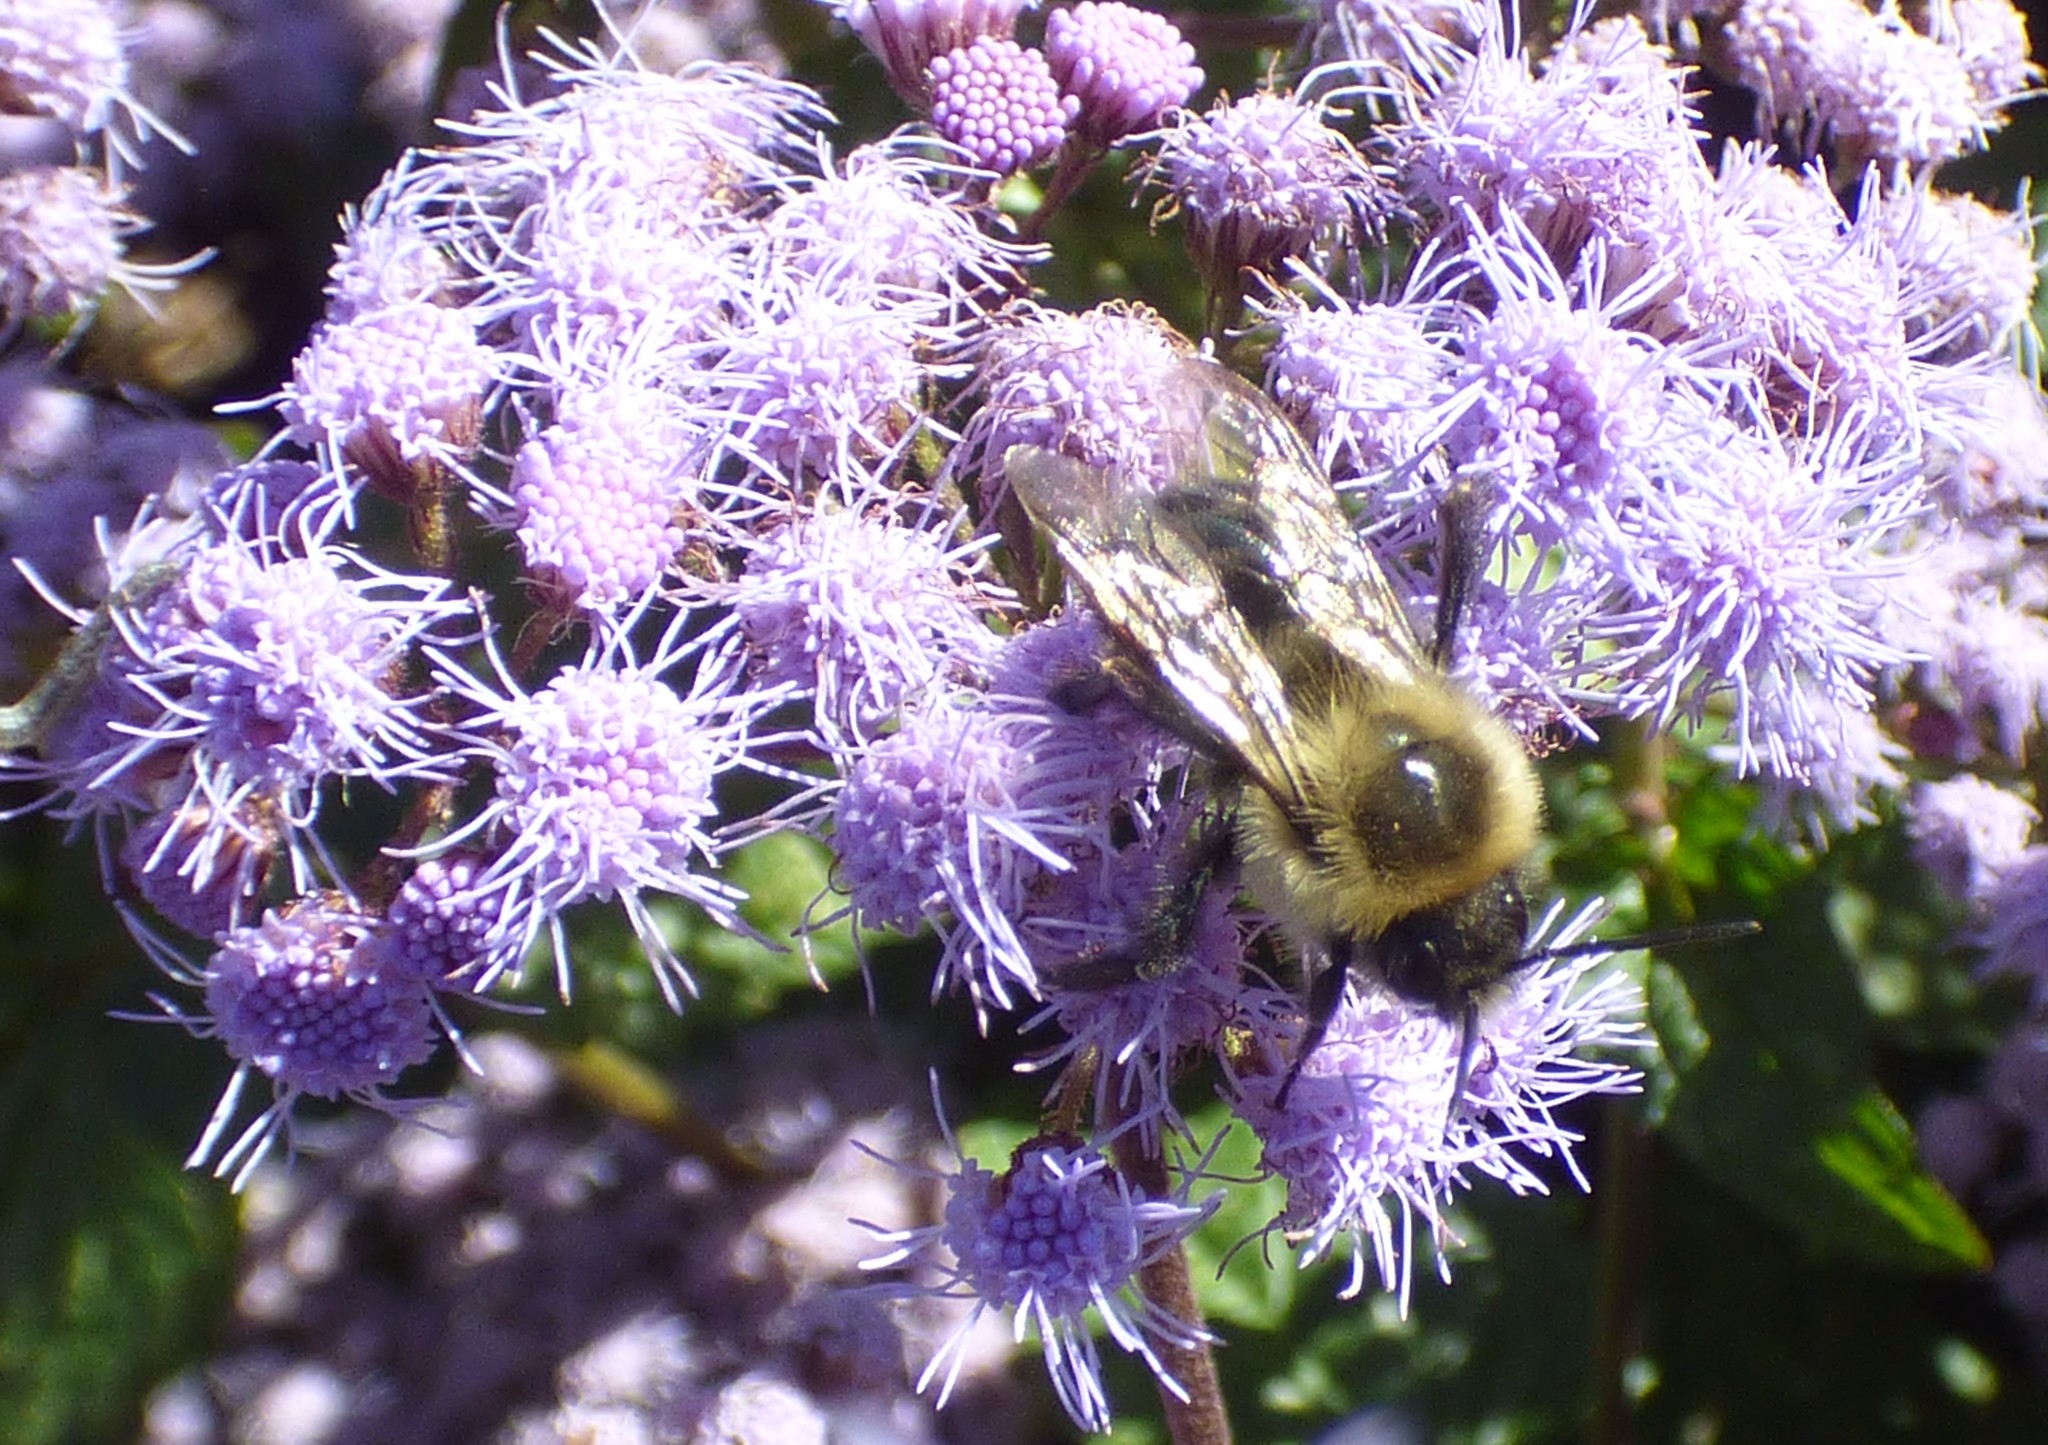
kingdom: Animalia
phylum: Arthropoda
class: Insecta
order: Hymenoptera
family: Apidae
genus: Bombus
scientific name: Bombus impatiens
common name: Common eastern bumble bee
